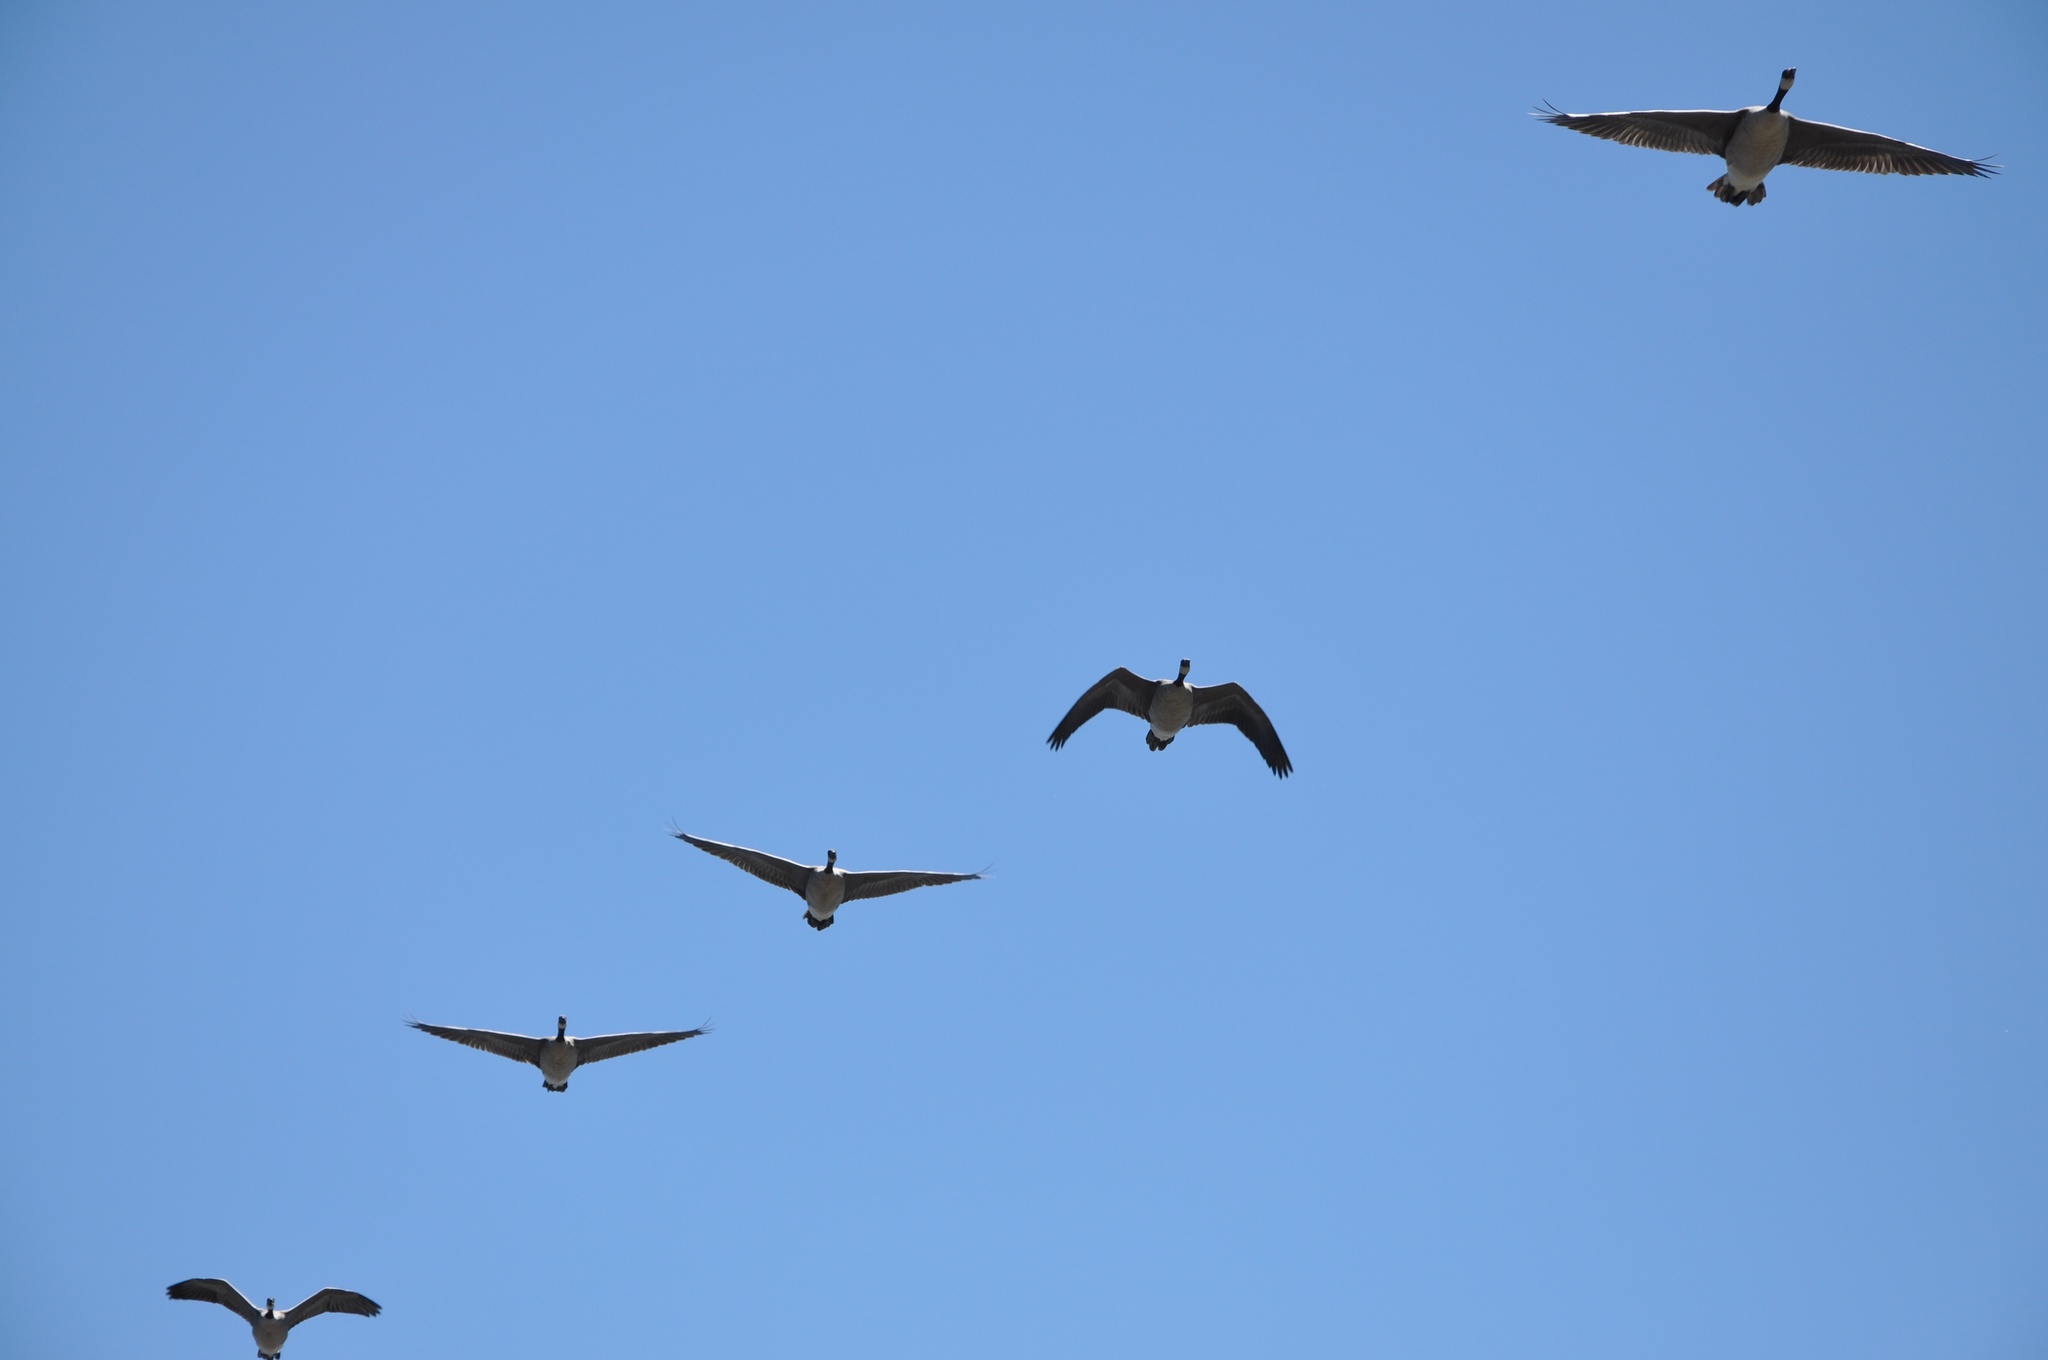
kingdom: Animalia
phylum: Chordata
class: Aves
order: Anseriformes
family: Anatidae
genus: Branta
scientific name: Branta canadensis
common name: Canada goose
